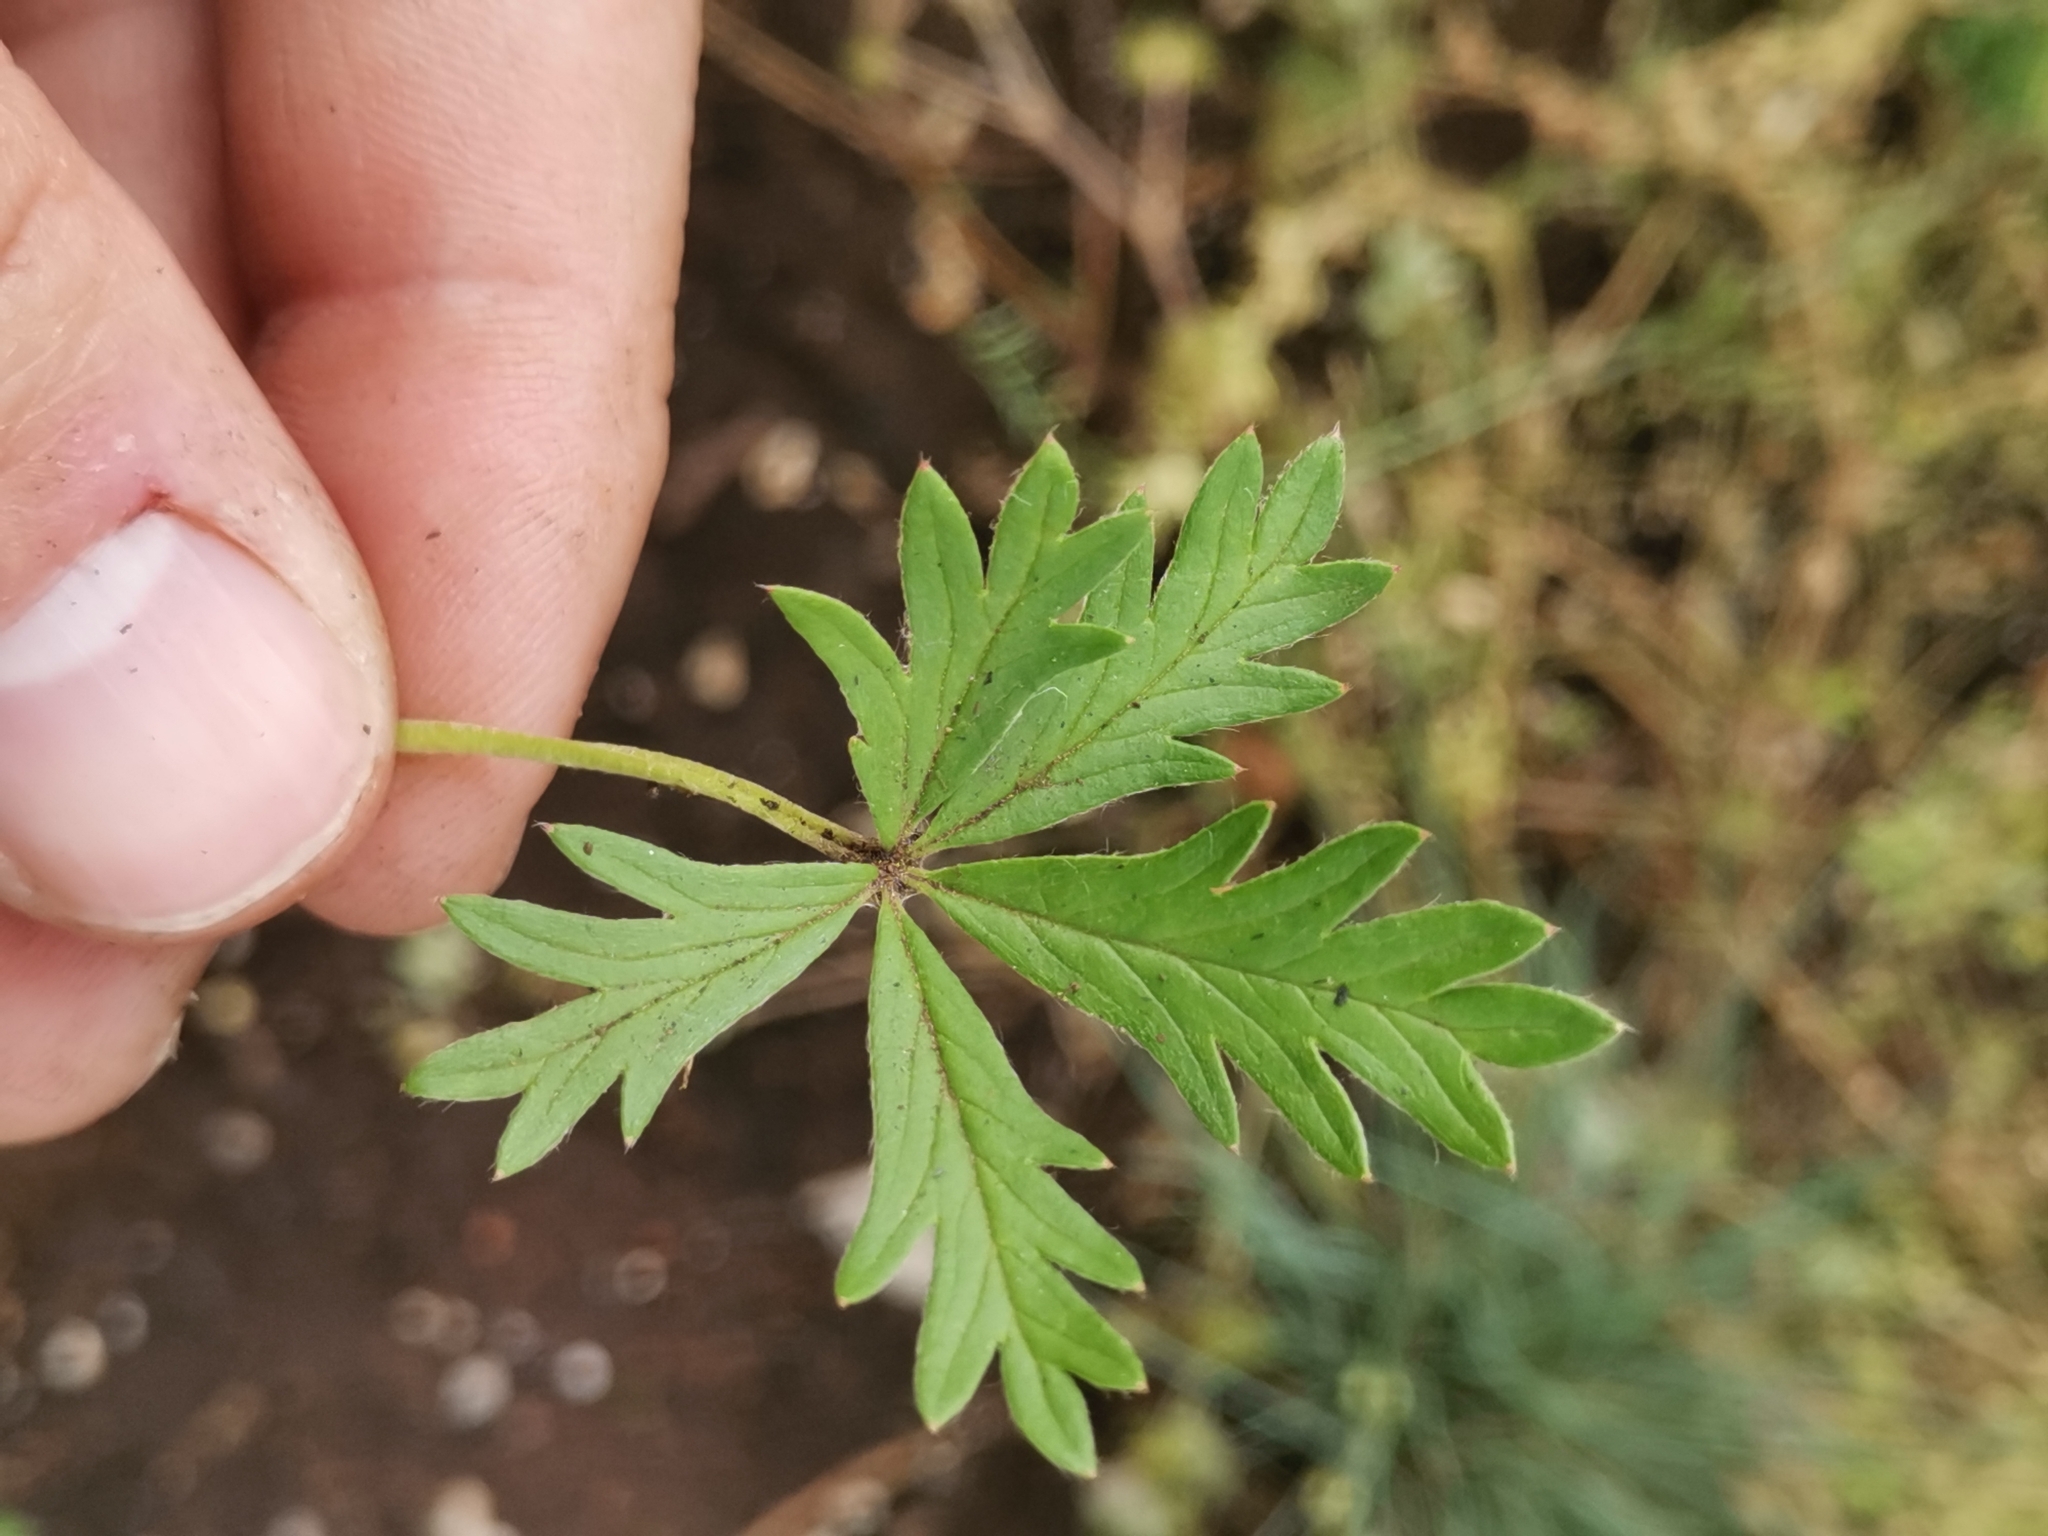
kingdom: Plantae
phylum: Tracheophyta
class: Magnoliopsida
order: Rosales
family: Rosaceae
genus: Potentilla
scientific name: Potentilla argentea
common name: Hoary cinquefoil
